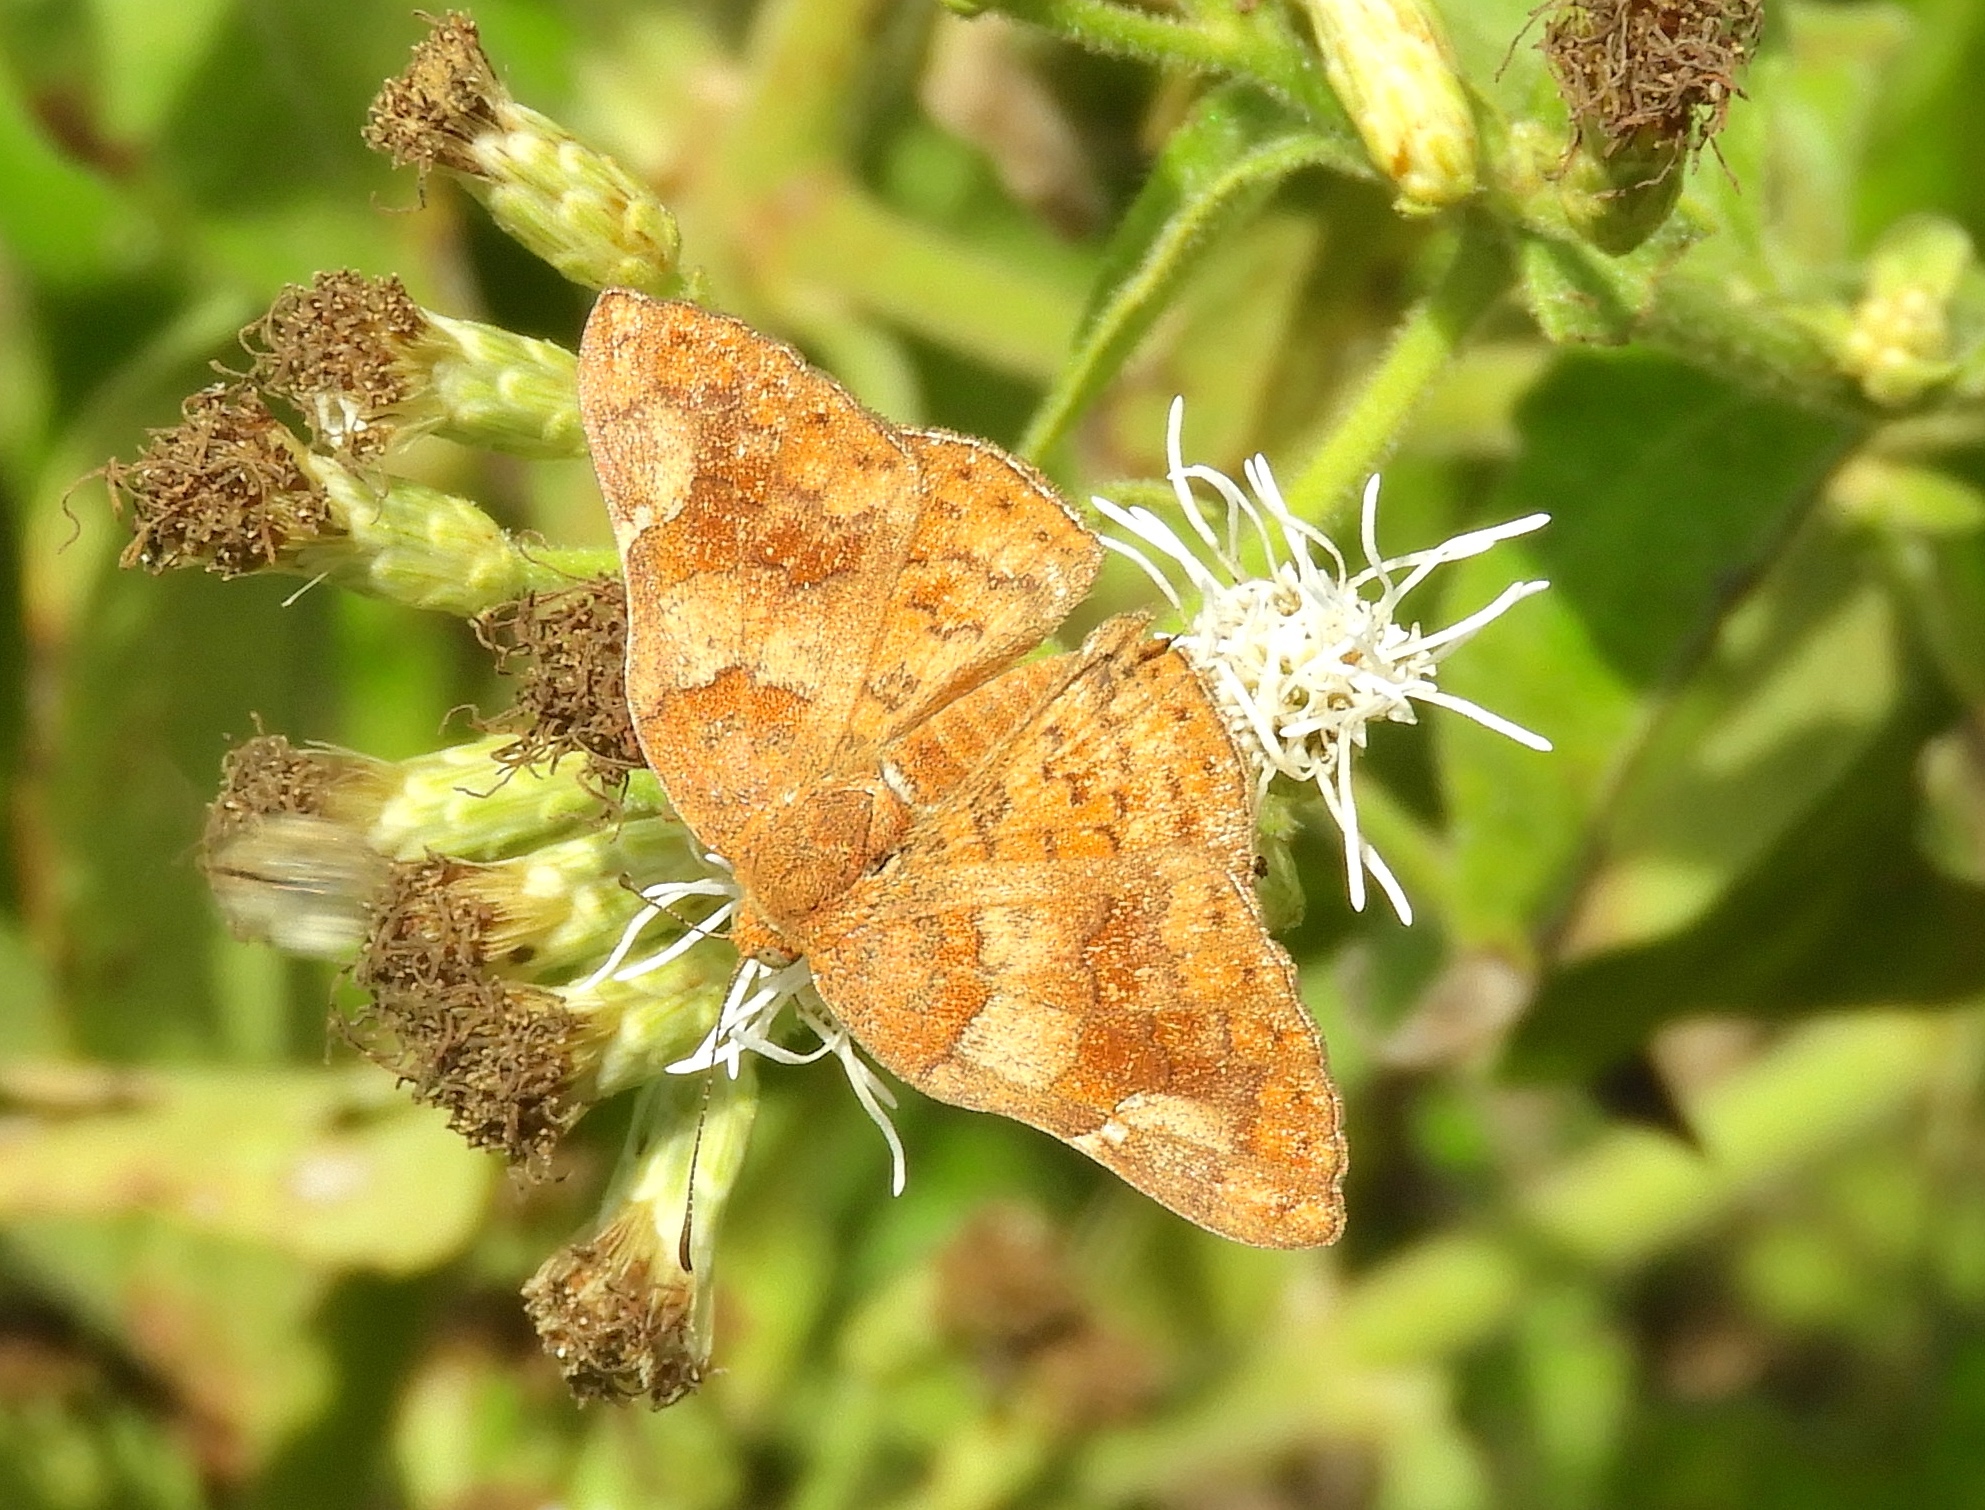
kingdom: Animalia
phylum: Arthropoda
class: Insecta
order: Lepidoptera
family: Riodinidae
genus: Curvie
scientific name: Curvie emesia
